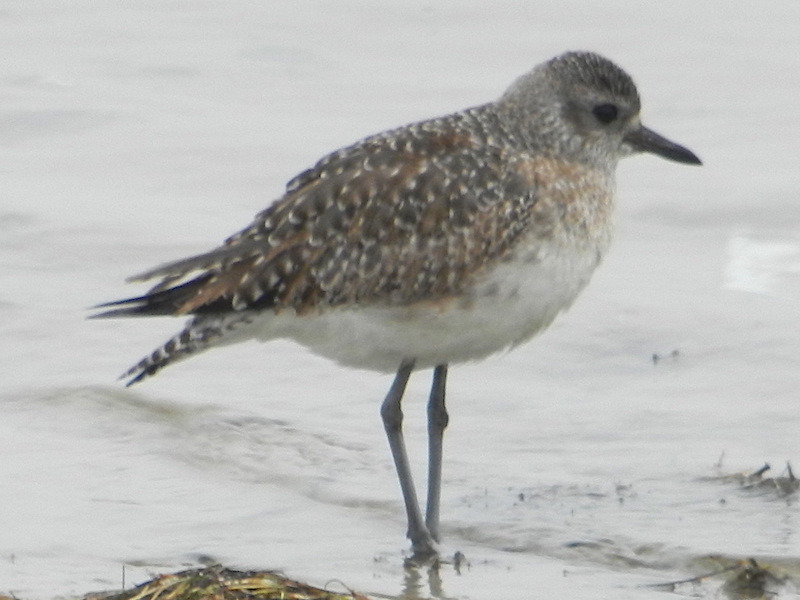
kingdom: Animalia
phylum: Chordata
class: Aves
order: Charadriiformes
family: Charadriidae
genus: Pluvialis
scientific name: Pluvialis squatarola
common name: Grey plover
